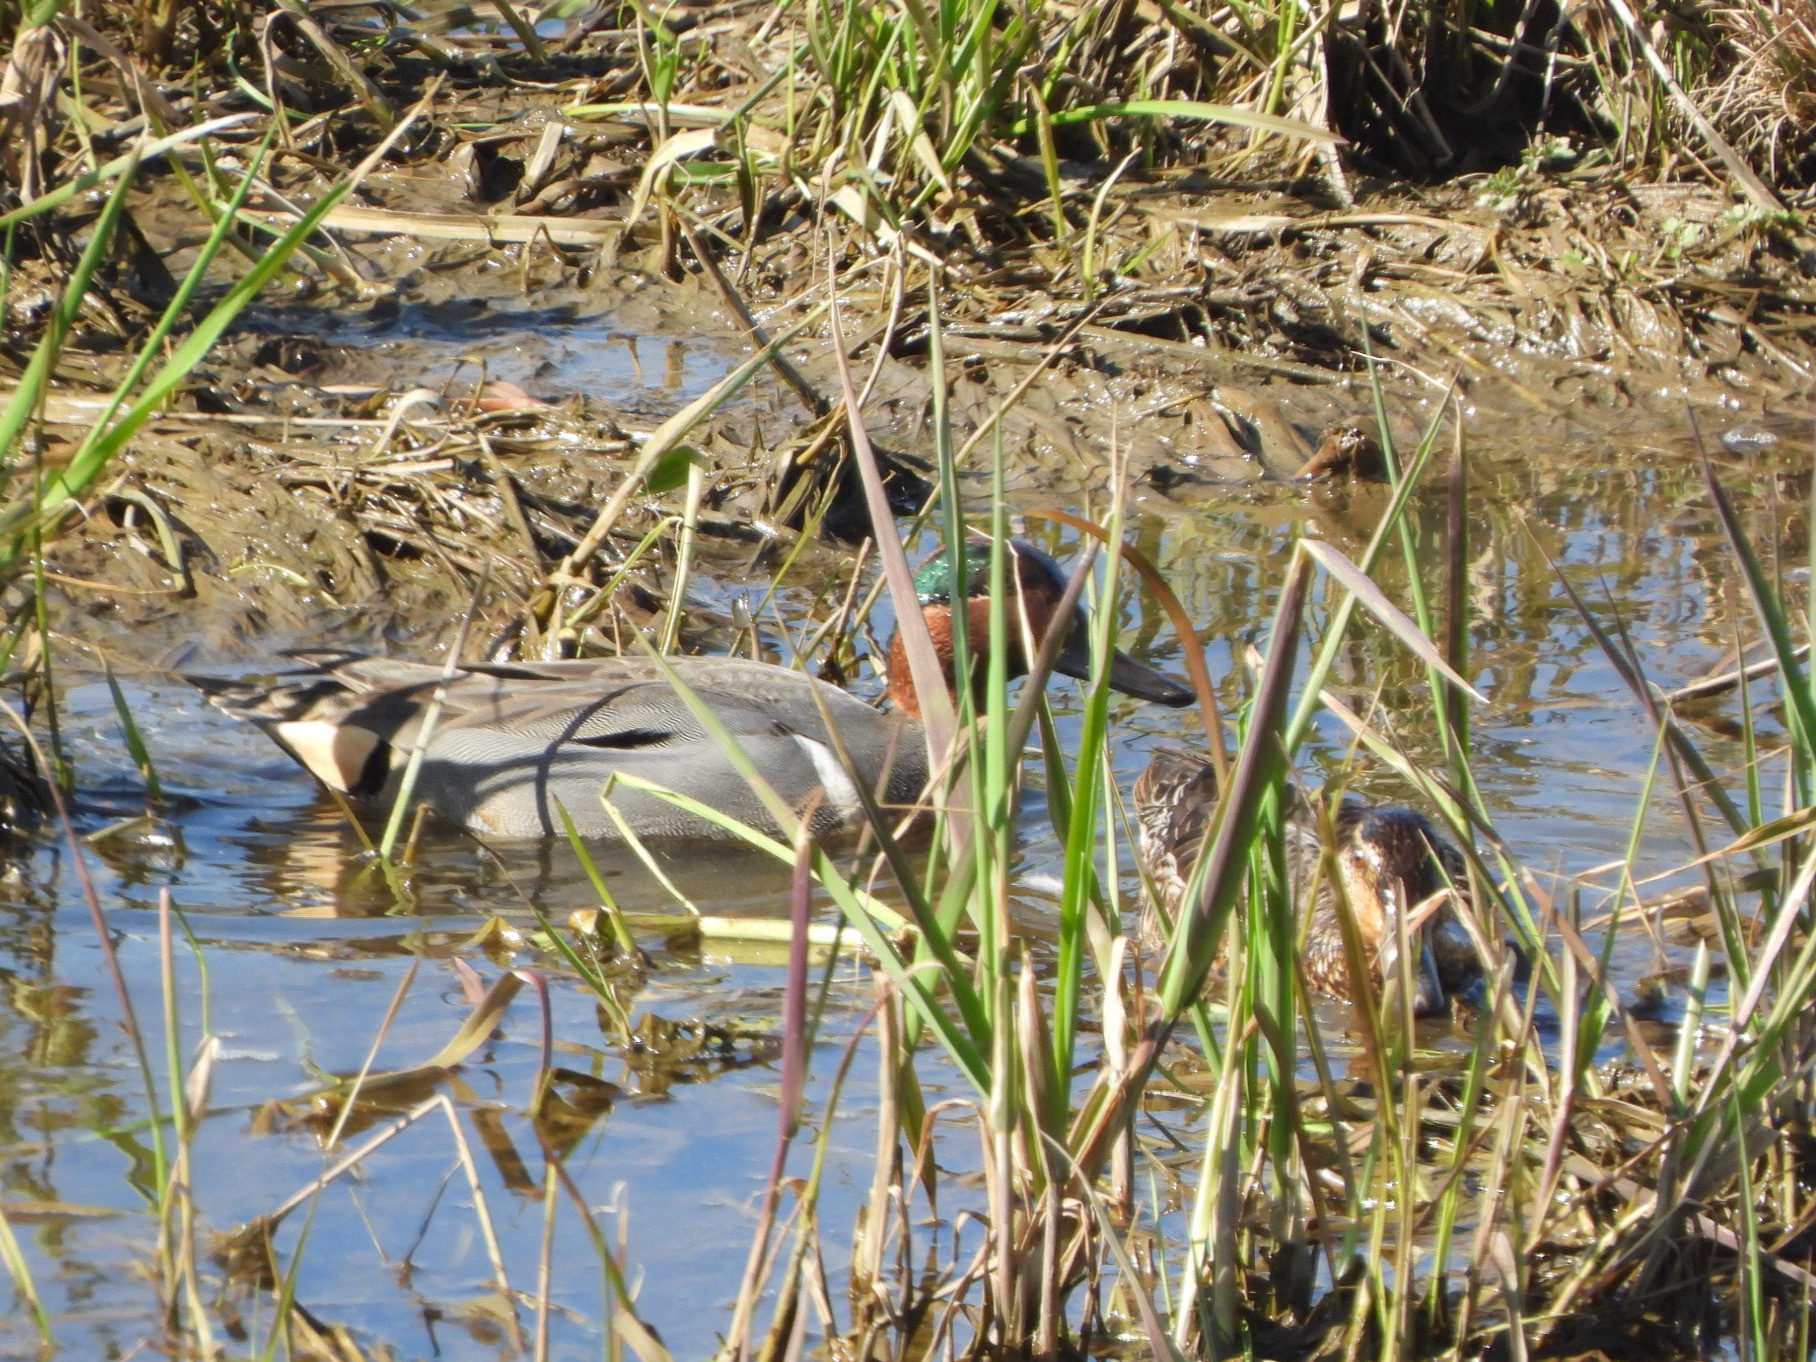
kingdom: Animalia
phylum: Chordata
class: Aves
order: Anseriformes
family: Anatidae
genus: Anas
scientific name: Anas carolinensis
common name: Green-winged teal
